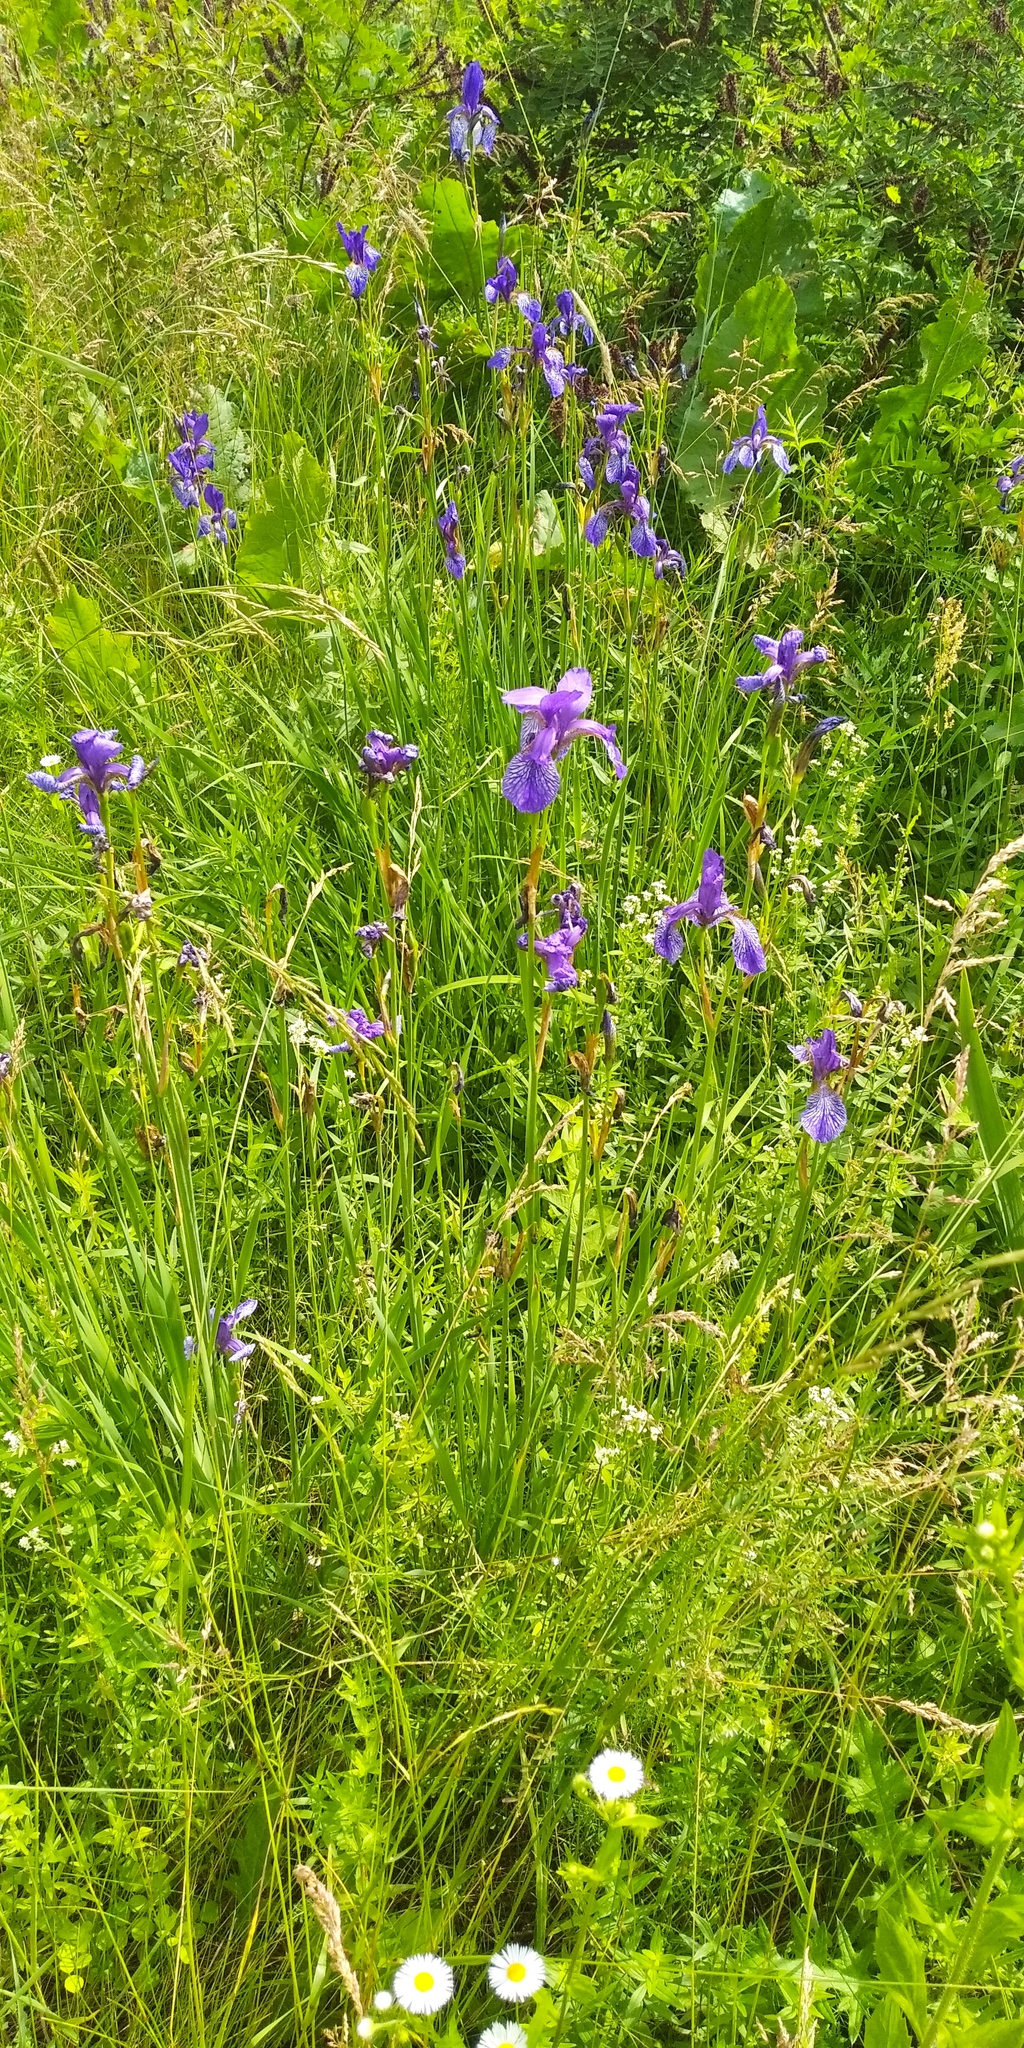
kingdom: Plantae
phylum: Tracheophyta
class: Liliopsida
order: Asparagales
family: Iridaceae
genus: Iris
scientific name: Iris sibirica
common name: Siberian iris
